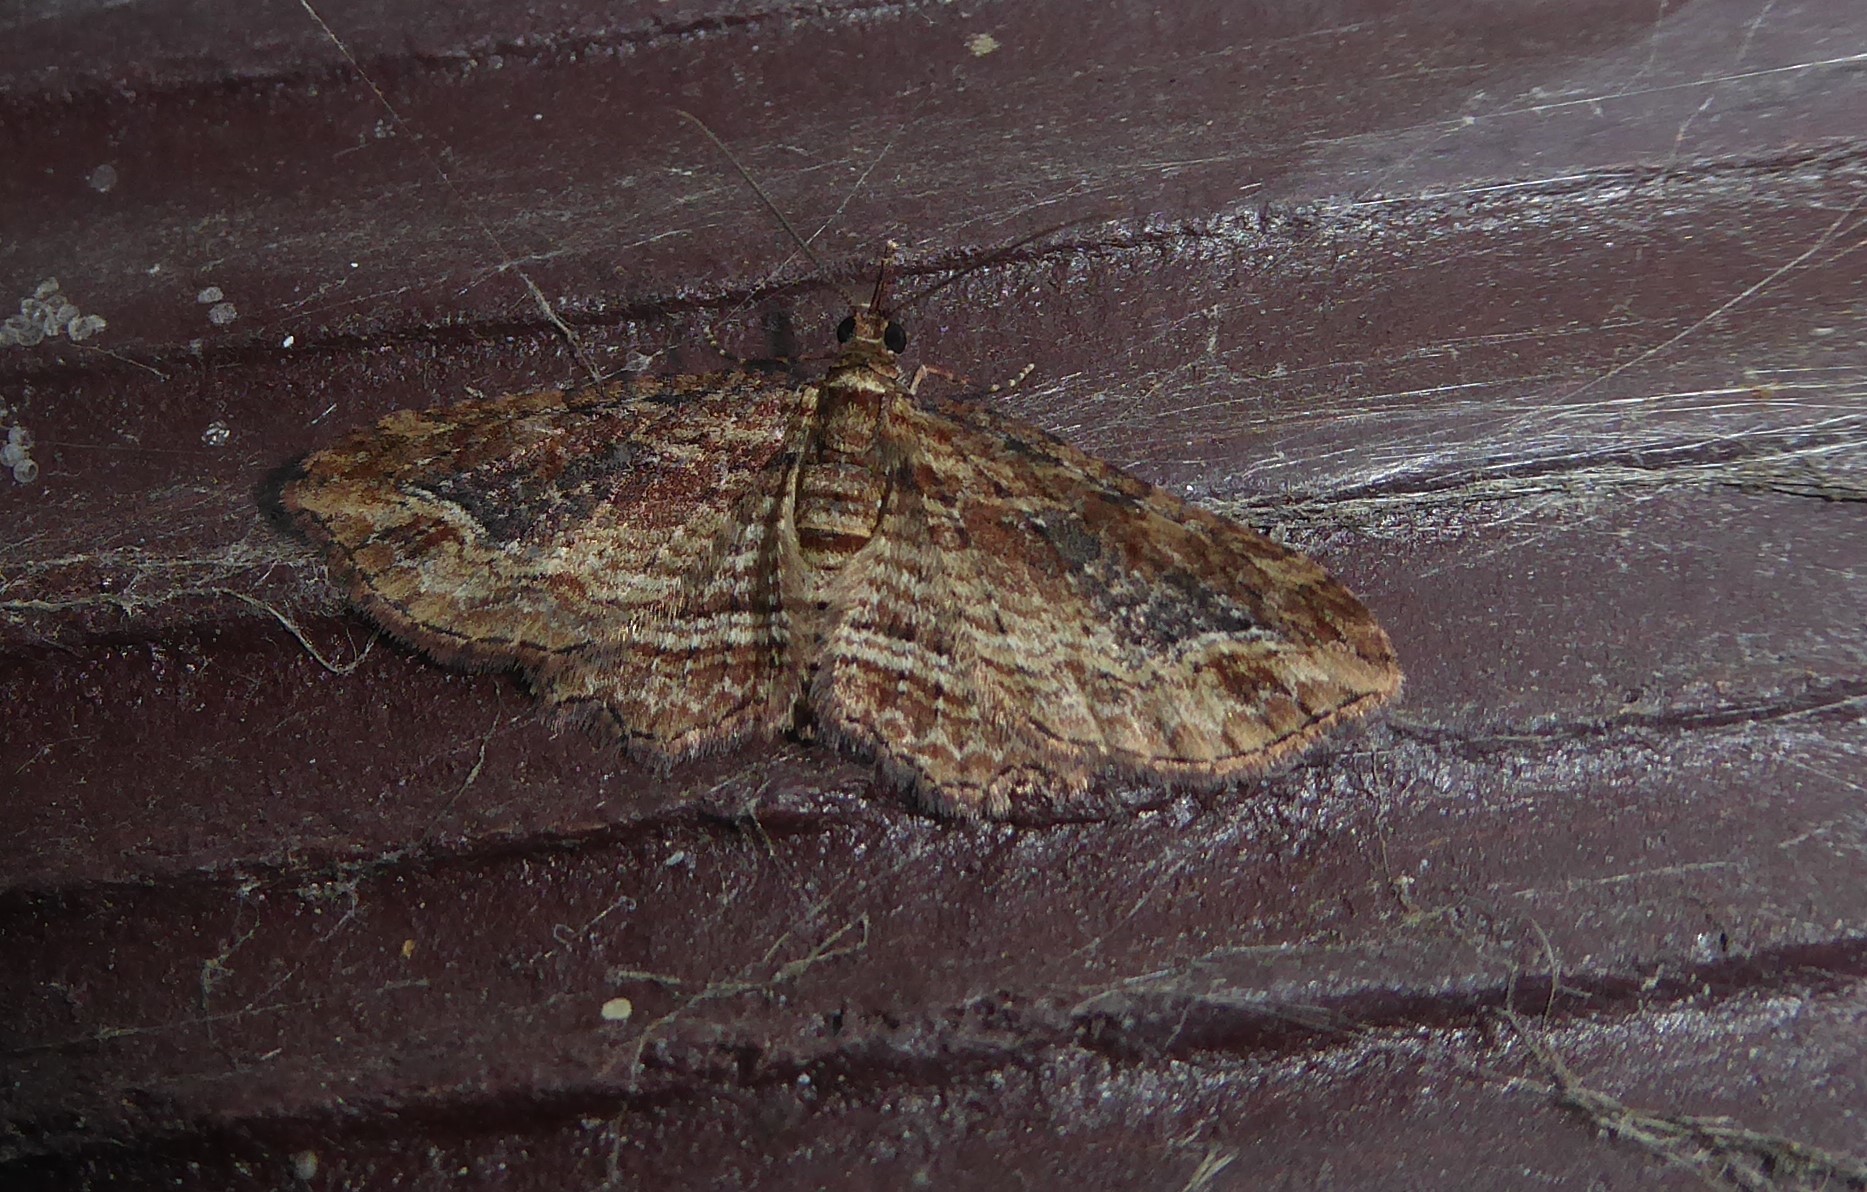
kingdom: Animalia
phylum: Arthropoda
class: Insecta
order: Lepidoptera
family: Geometridae
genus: Chloroclystis
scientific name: Chloroclystis filata
